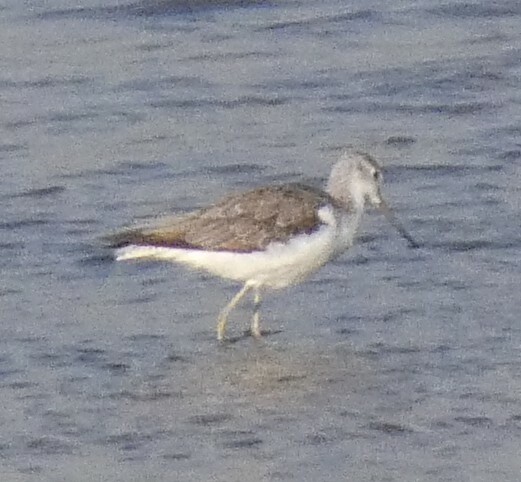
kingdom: Animalia
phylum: Chordata
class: Aves
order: Charadriiformes
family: Scolopacidae
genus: Tringa
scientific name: Tringa nebularia
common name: Common greenshank
